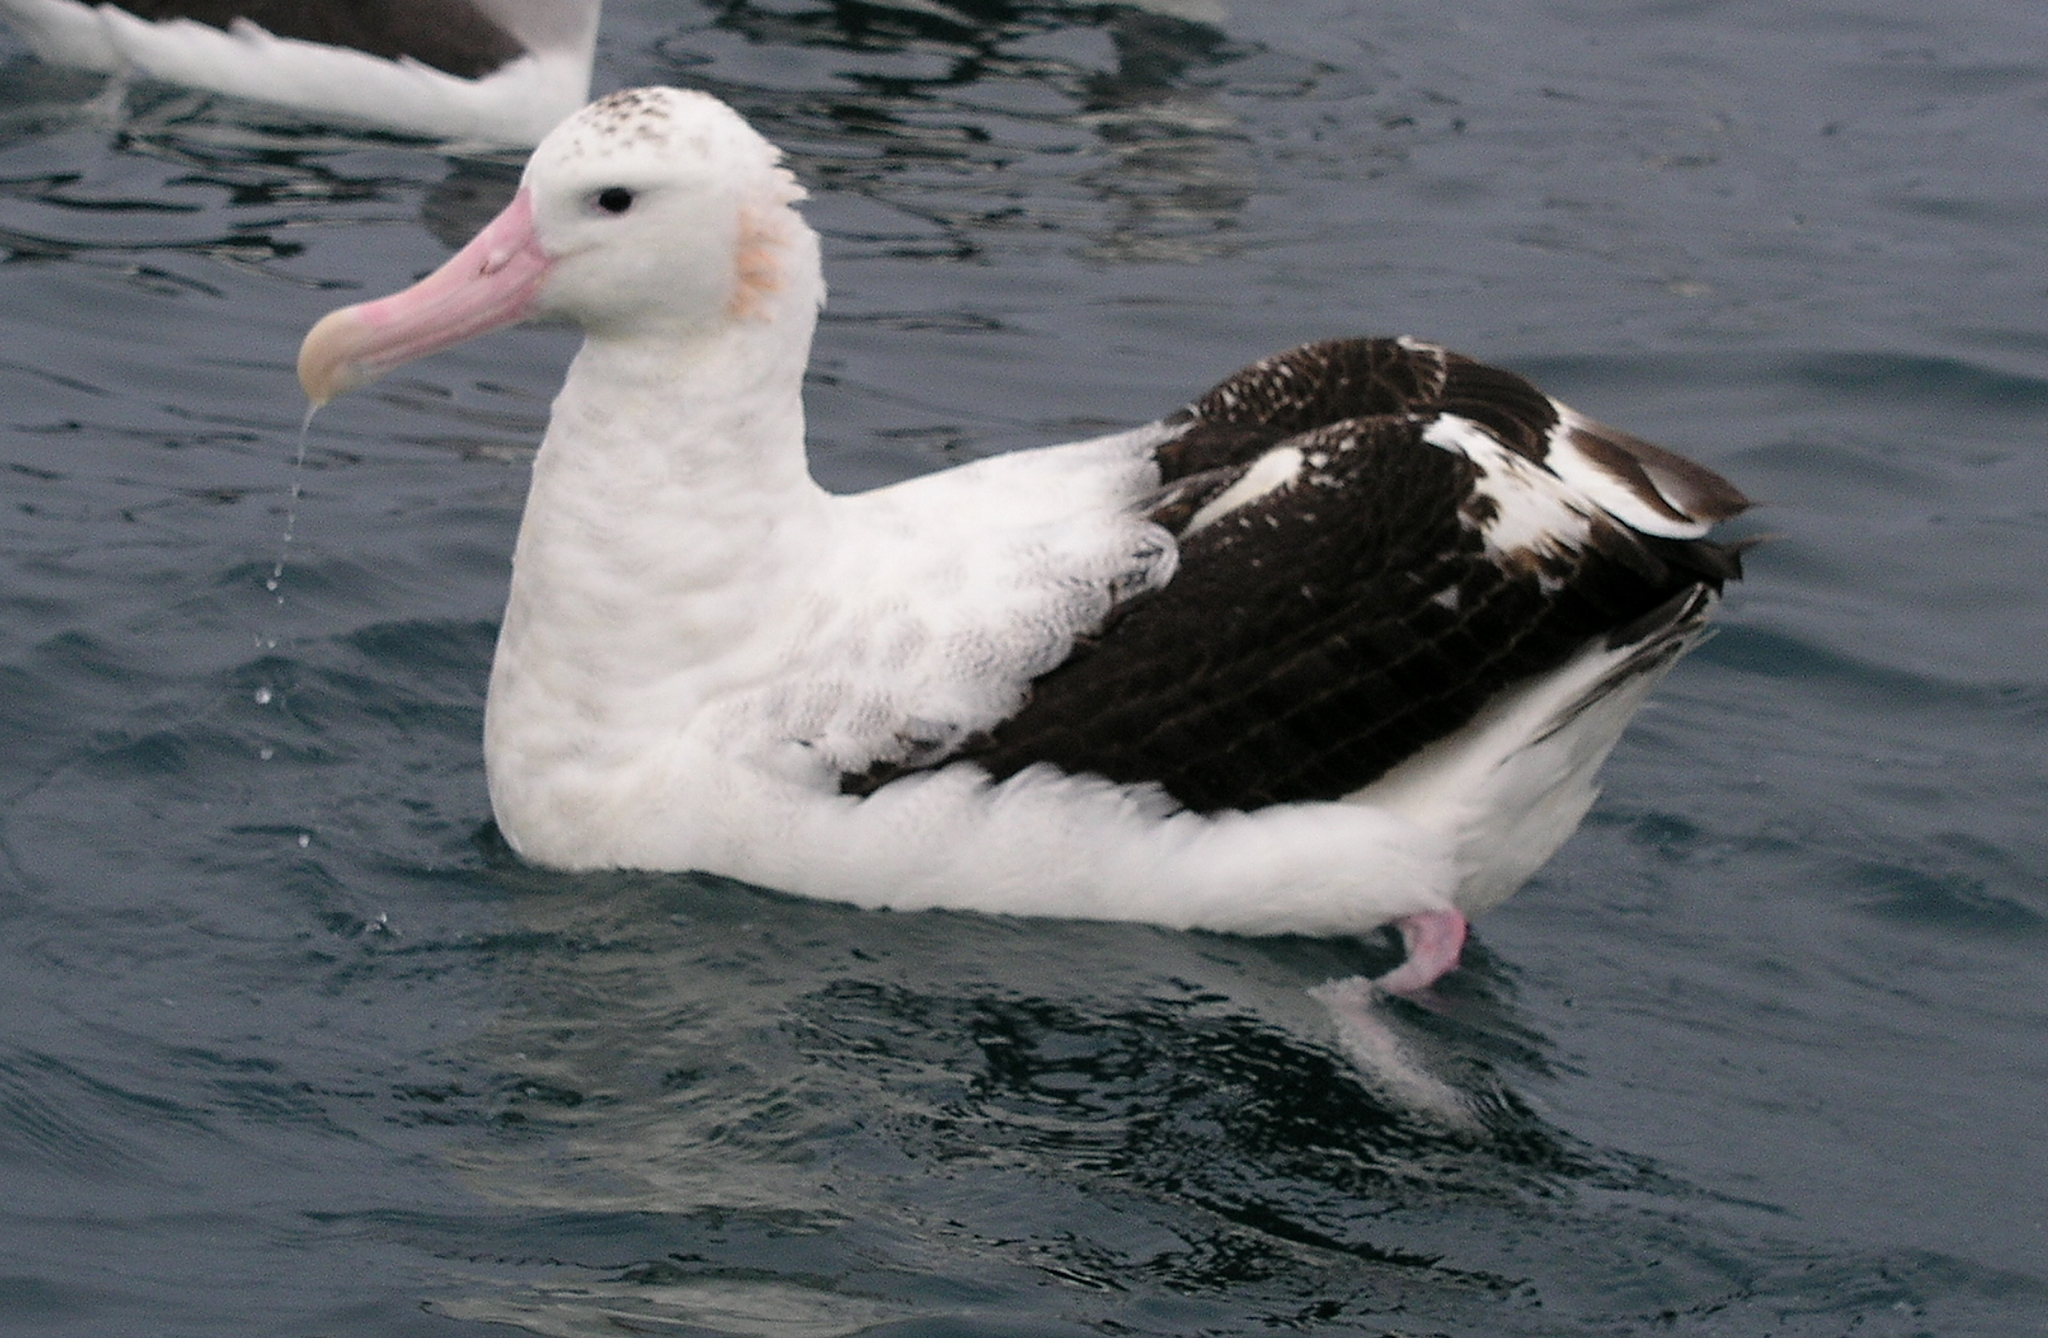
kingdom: Animalia
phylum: Chordata
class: Aves
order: Procellariiformes
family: Diomedeidae
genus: Diomedea
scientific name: Diomedea antipodensis
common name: Antipodean albatross
